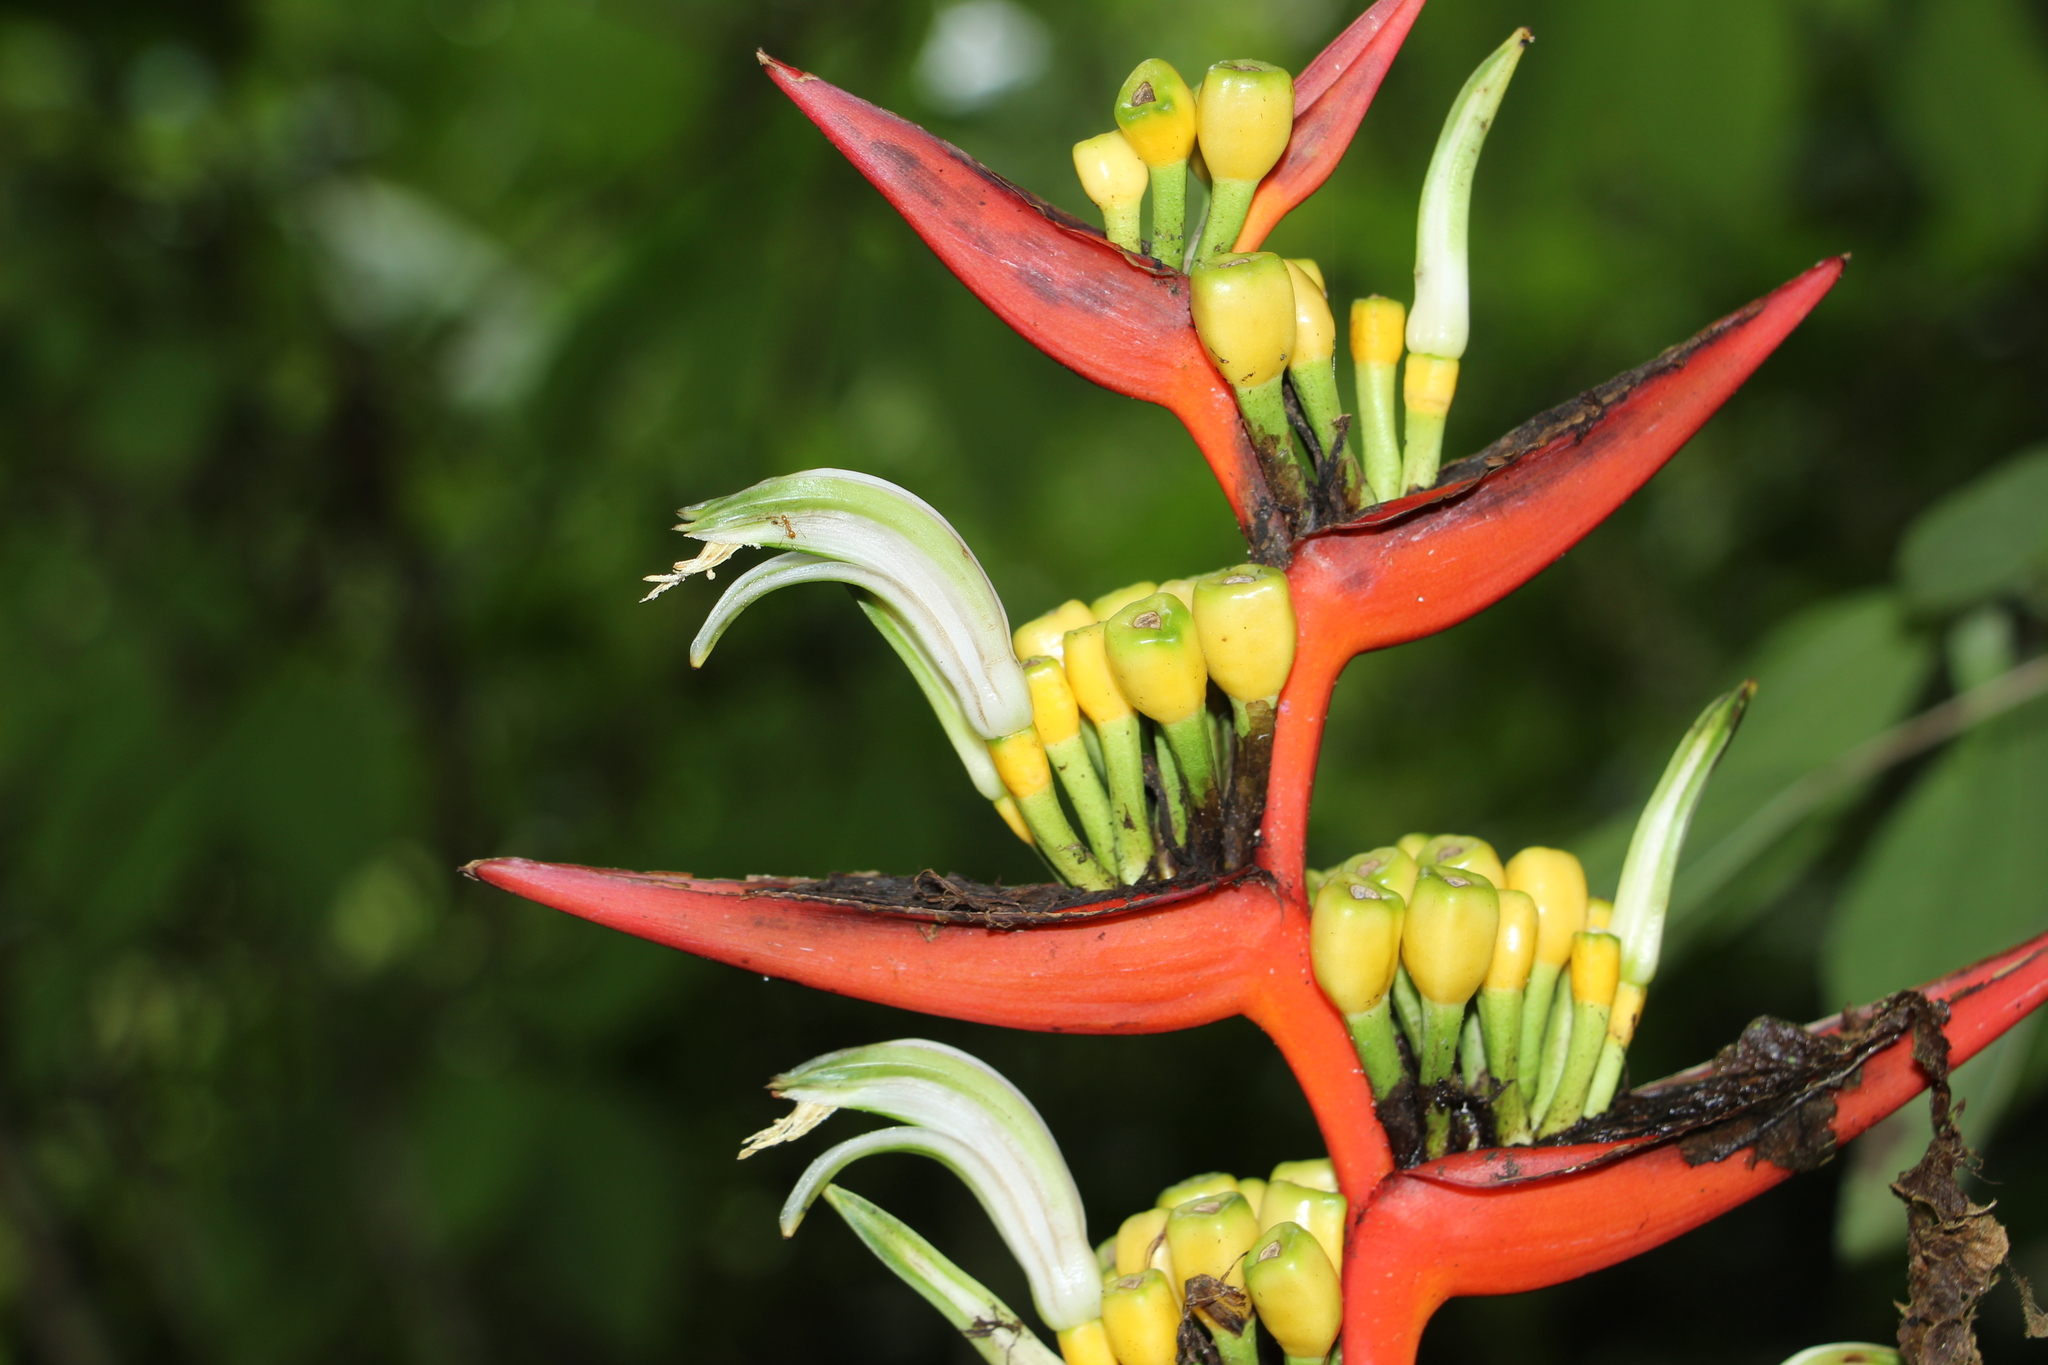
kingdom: Plantae
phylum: Tracheophyta
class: Liliopsida
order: Zingiberales
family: Heliconiaceae
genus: Heliconia
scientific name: Heliconia burleana
